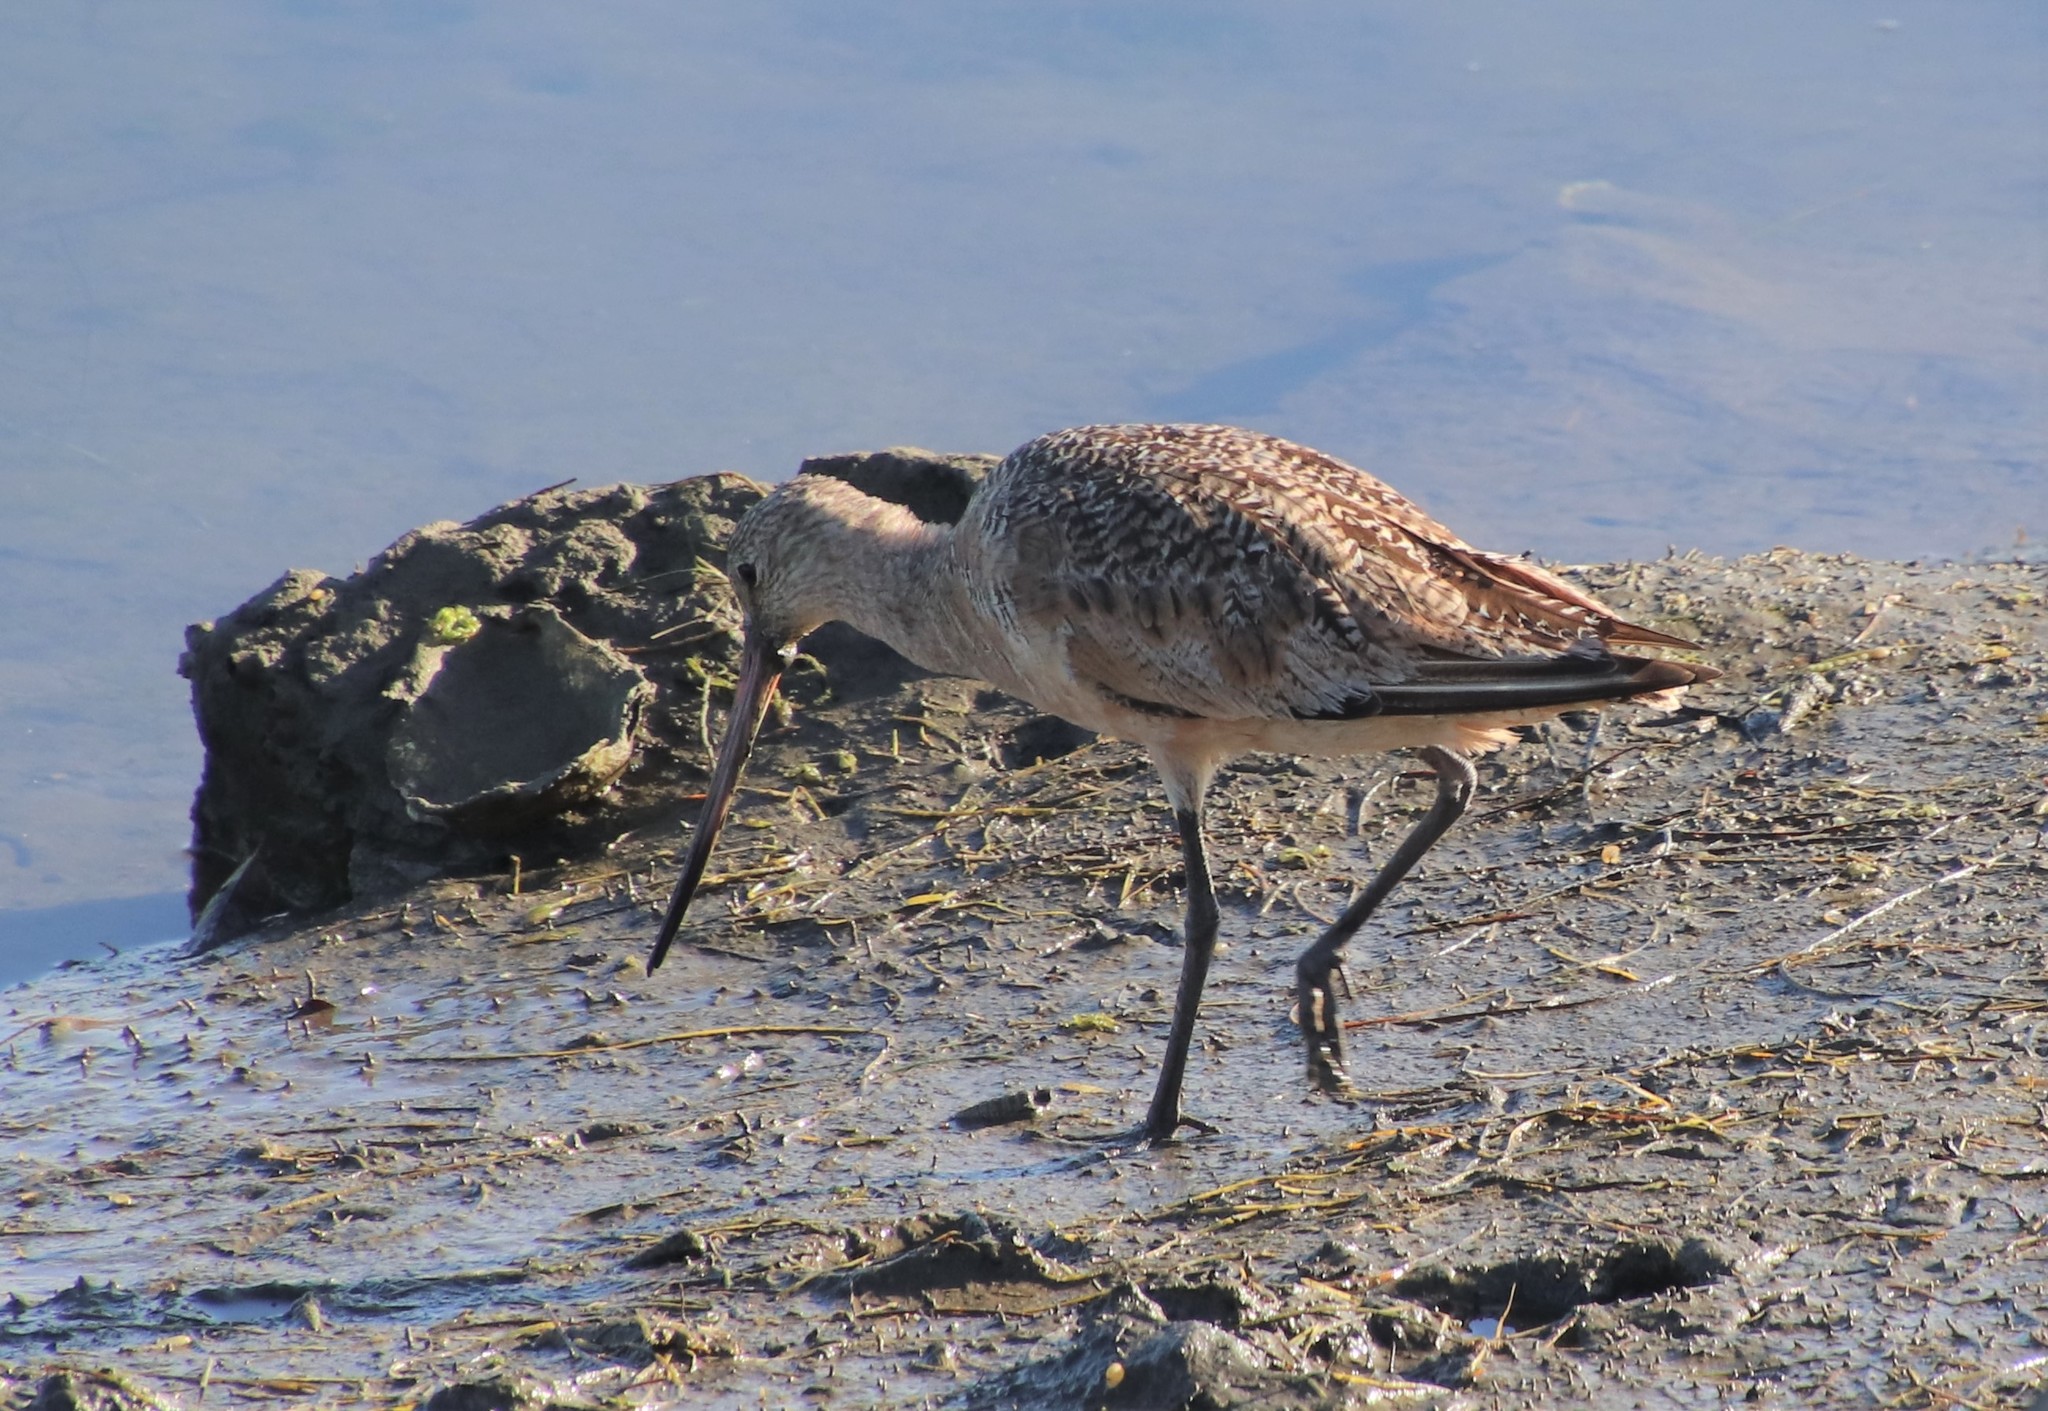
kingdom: Animalia
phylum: Chordata
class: Aves
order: Charadriiformes
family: Scolopacidae
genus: Limosa
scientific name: Limosa fedoa
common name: Marbled godwit
